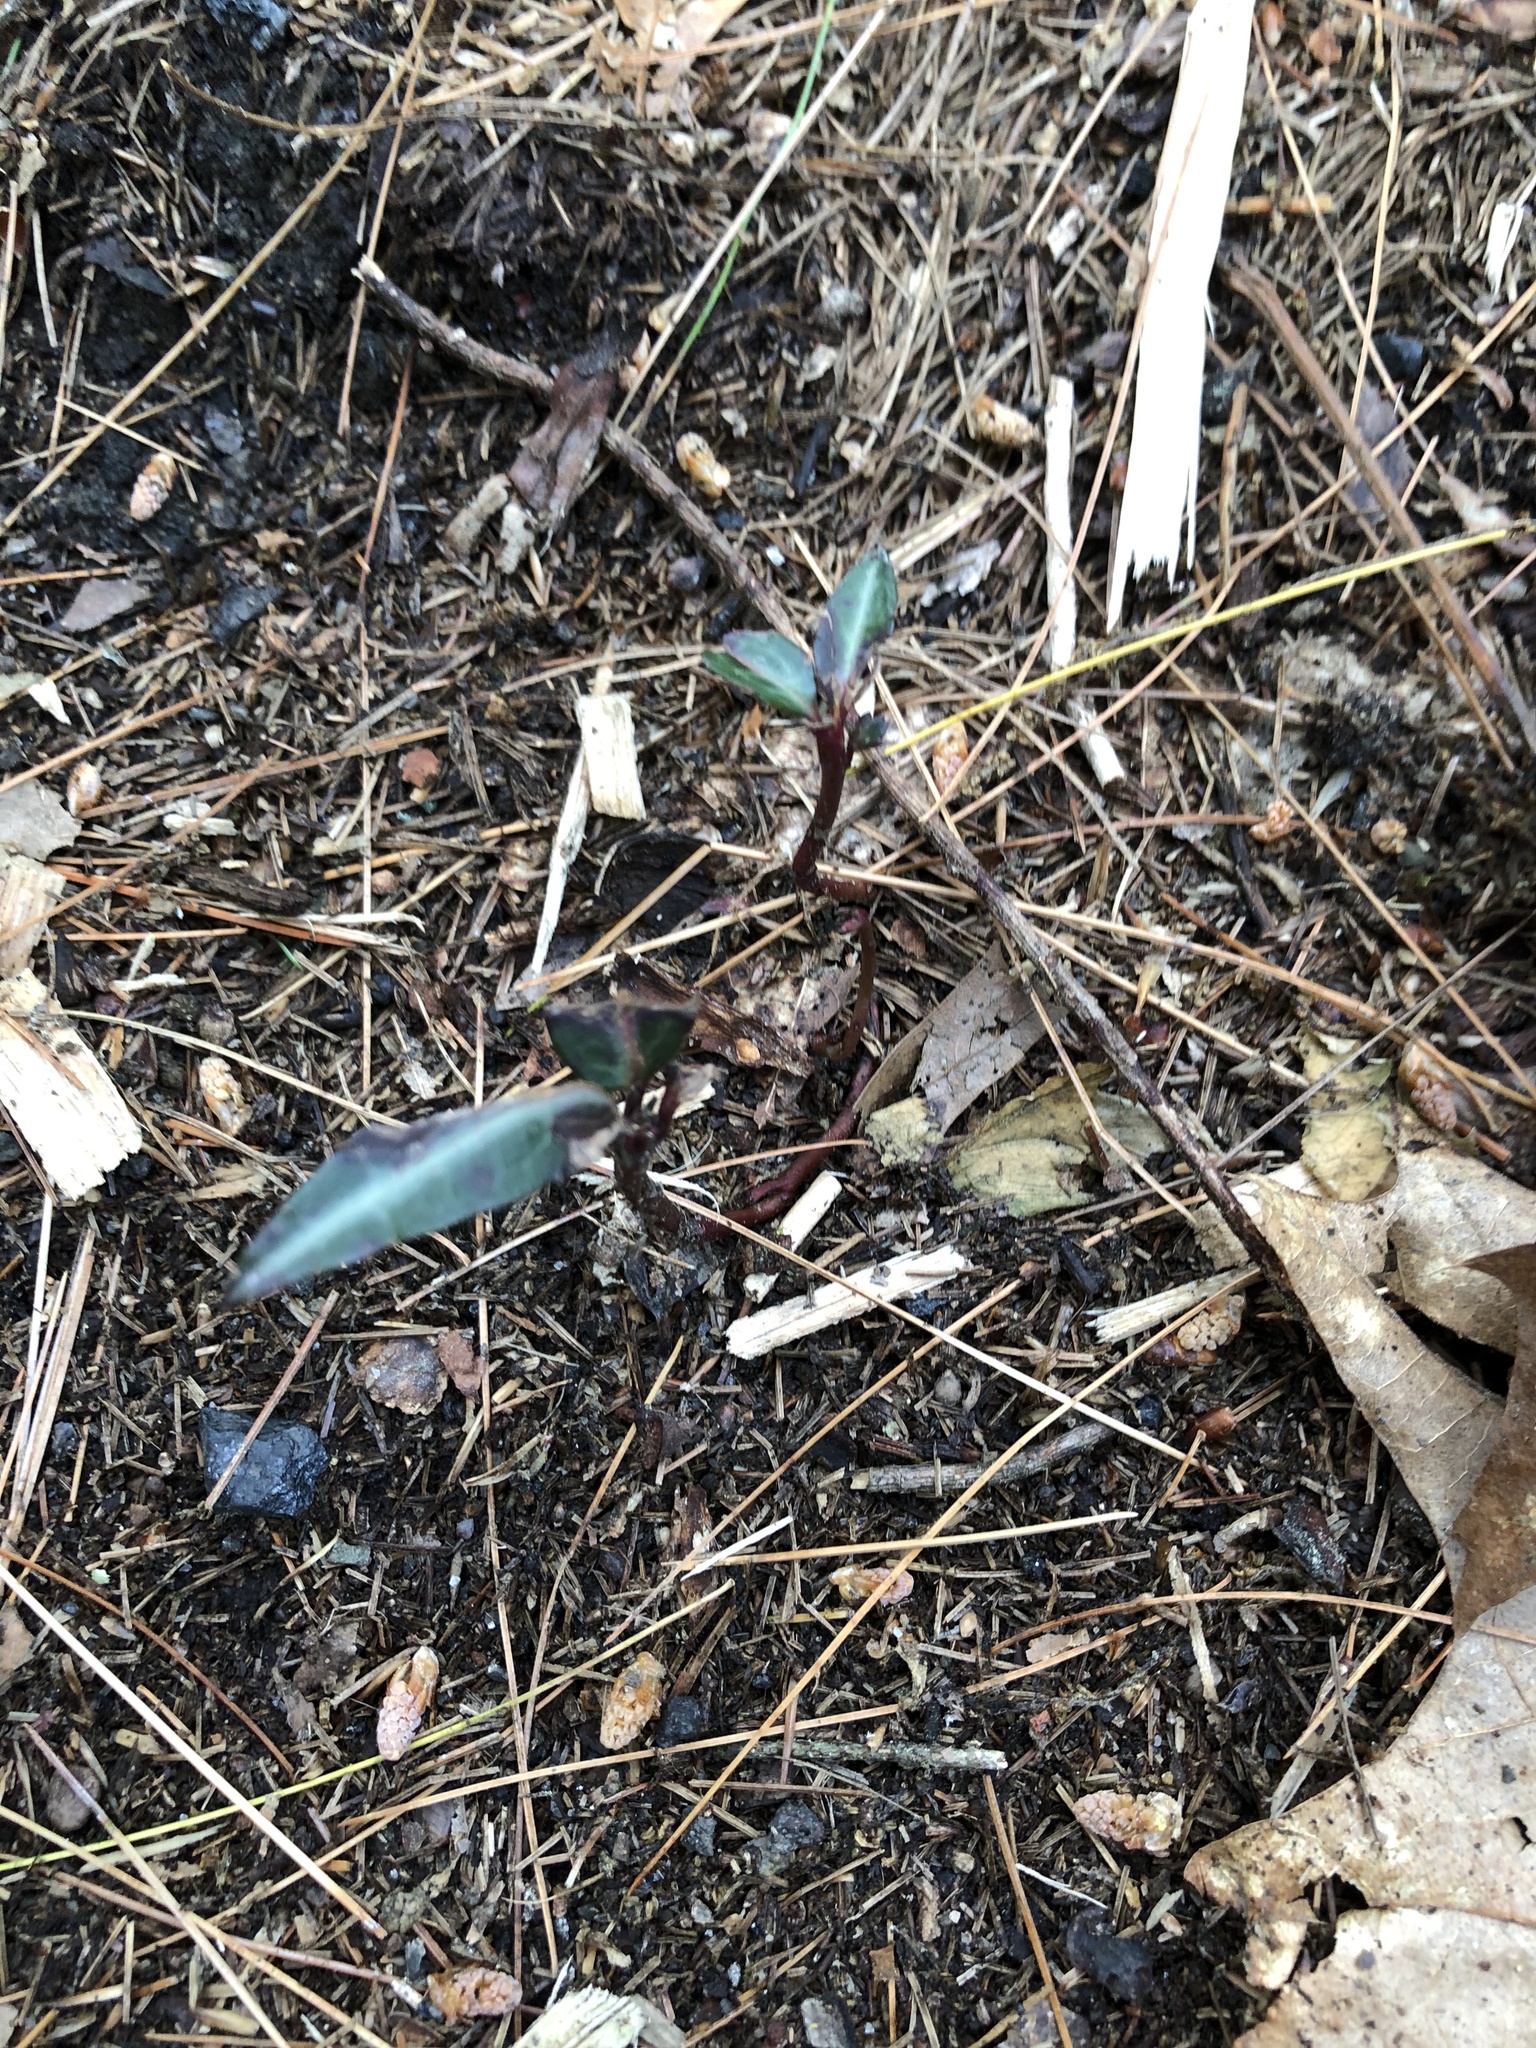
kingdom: Plantae
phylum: Tracheophyta
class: Magnoliopsida
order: Ericales
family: Ericaceae
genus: Chimaphila
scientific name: Chimaphila maculata
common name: Spotted pipsissewa
